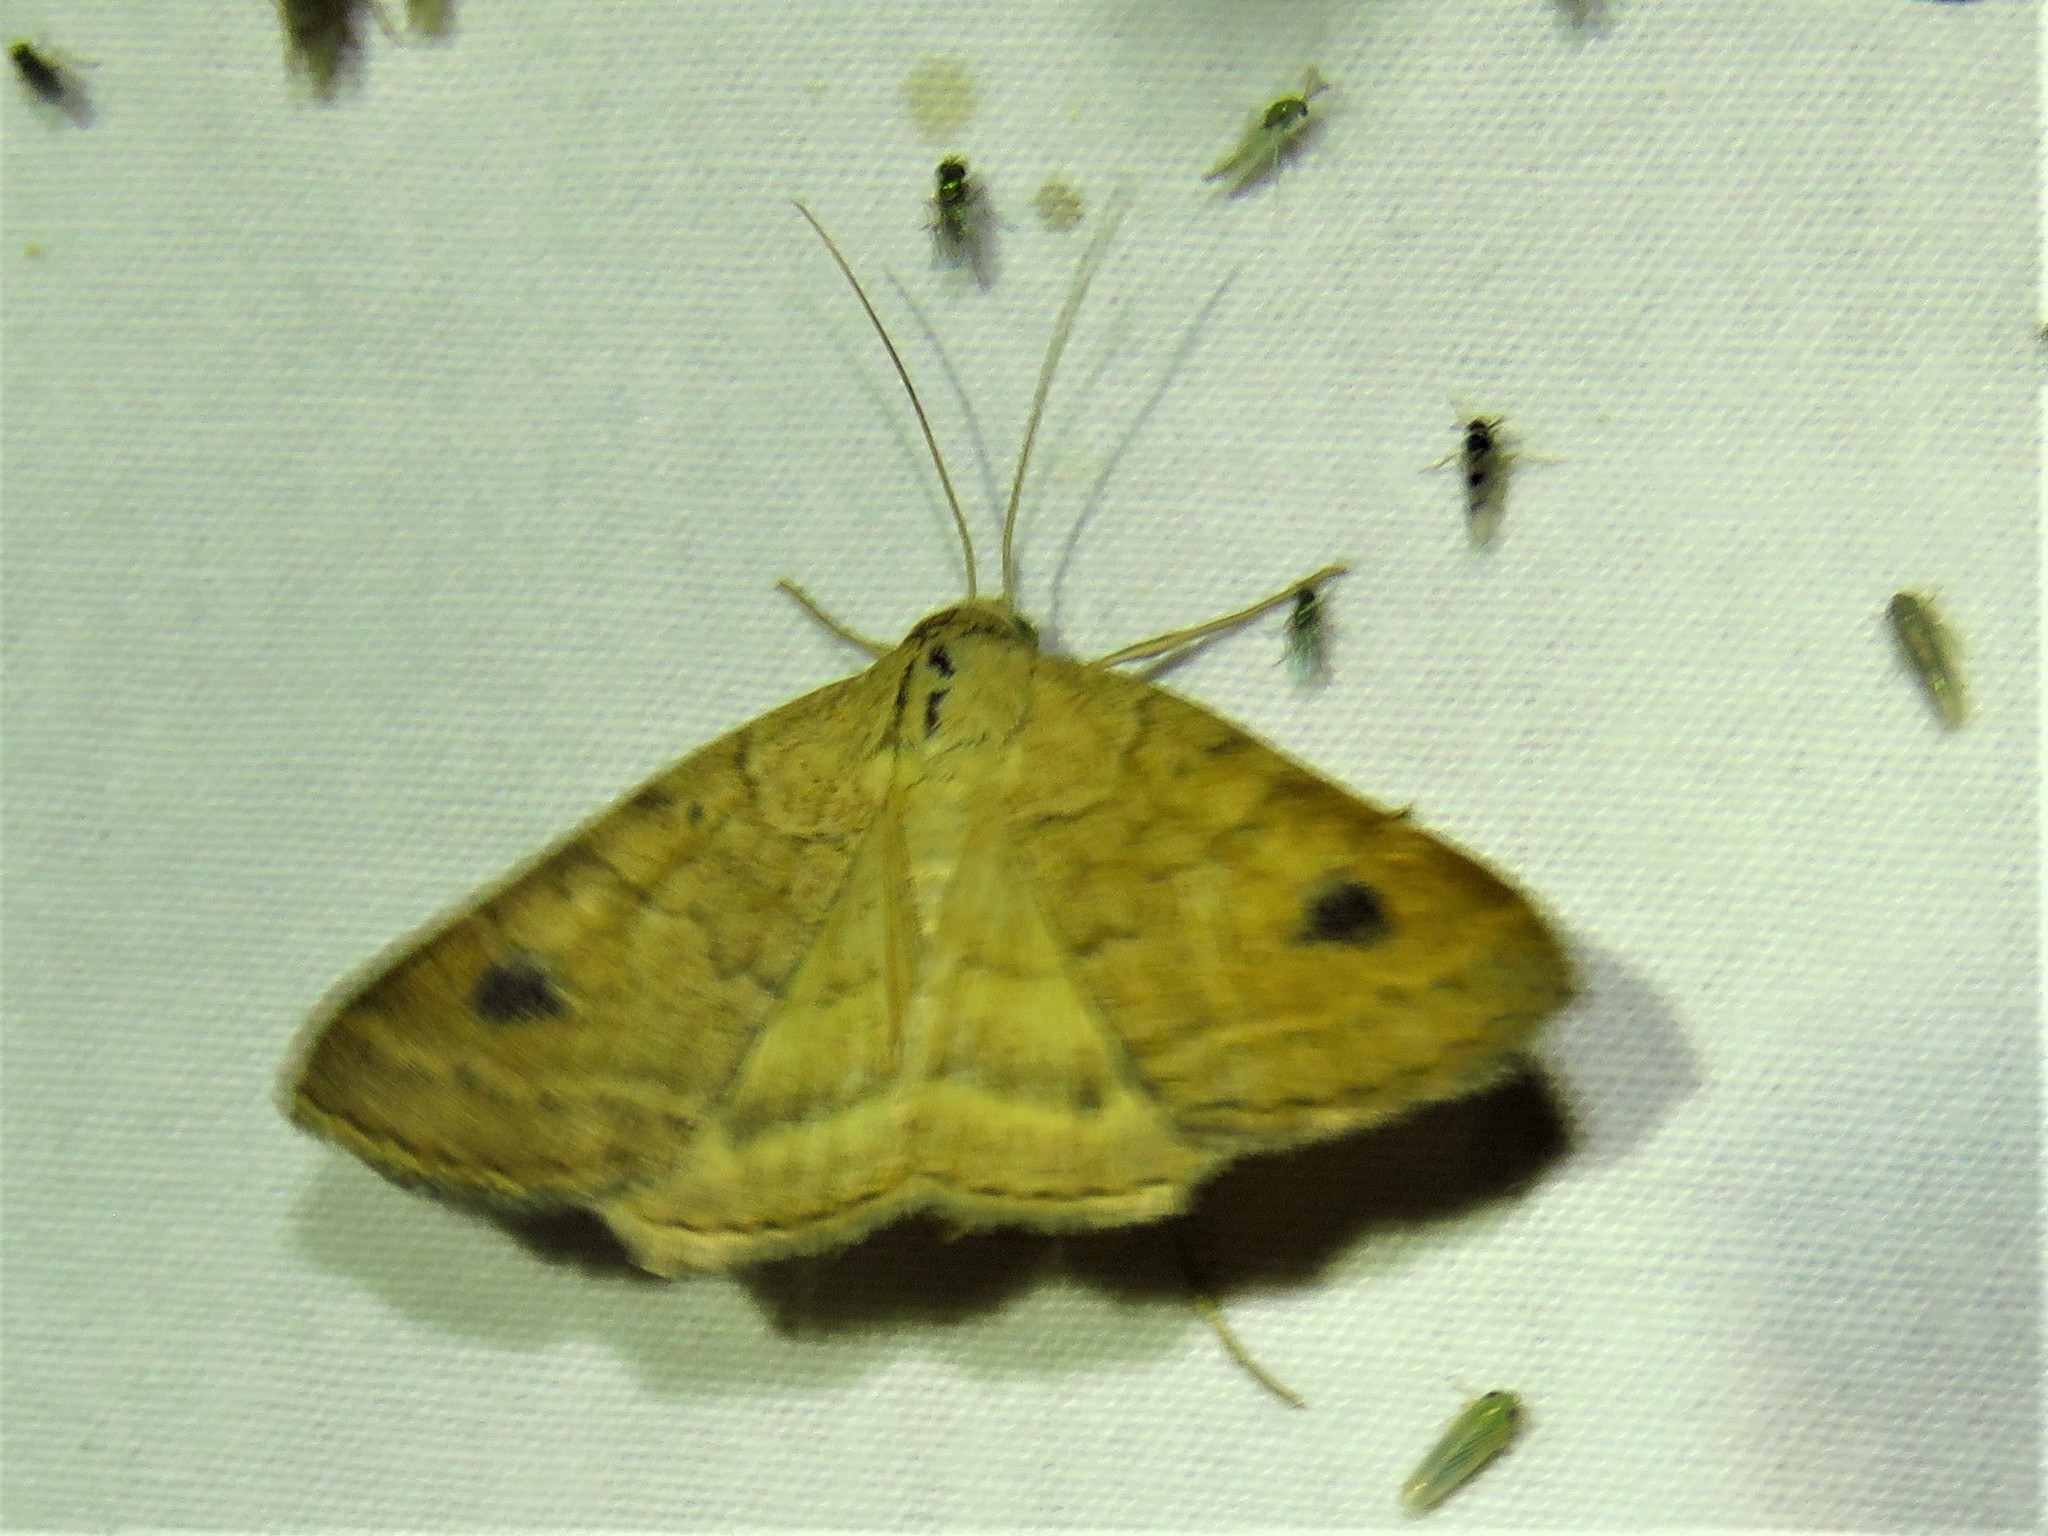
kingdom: Animalia
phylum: Arthropoda
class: Insecta
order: Lepidoptera
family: Erebidae
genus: Caenurgia
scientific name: Caenurgia chloropha
